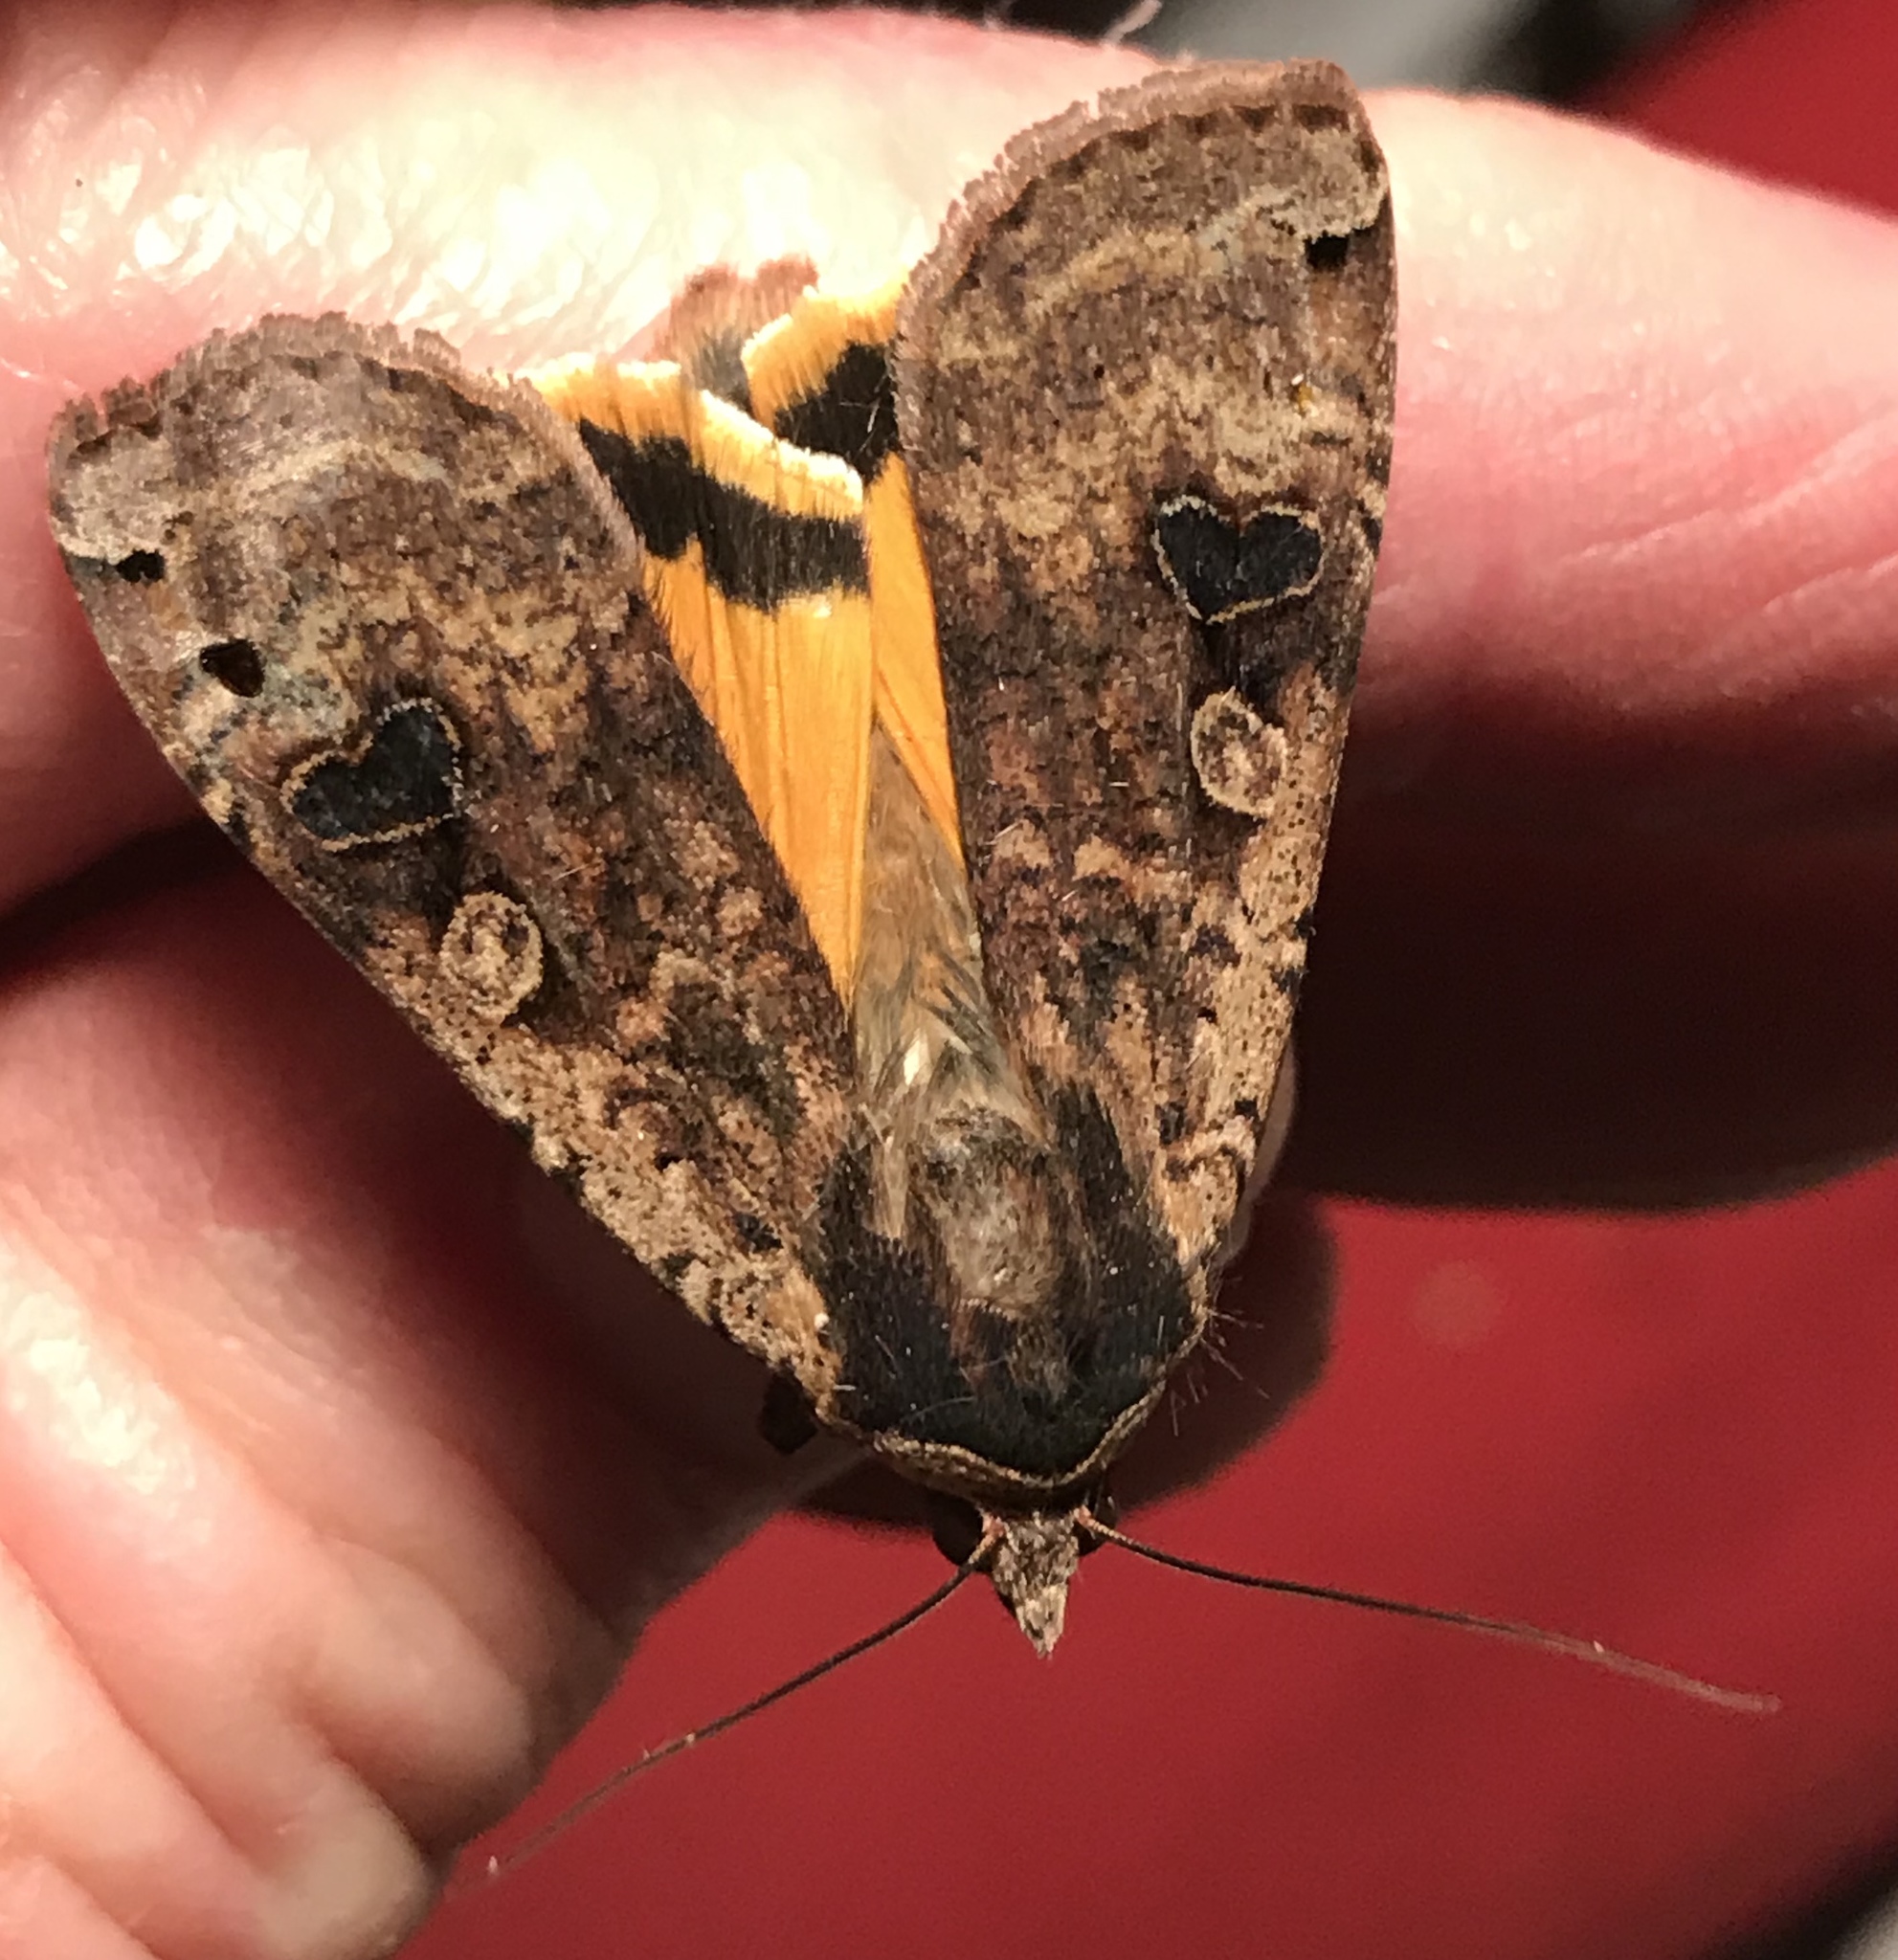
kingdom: Animalia
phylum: Arthropoda
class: Insecta
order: Lepidoptera
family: Noctuidae
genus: Noctua
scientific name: Noctua pronuba
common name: Large yellow underwing
